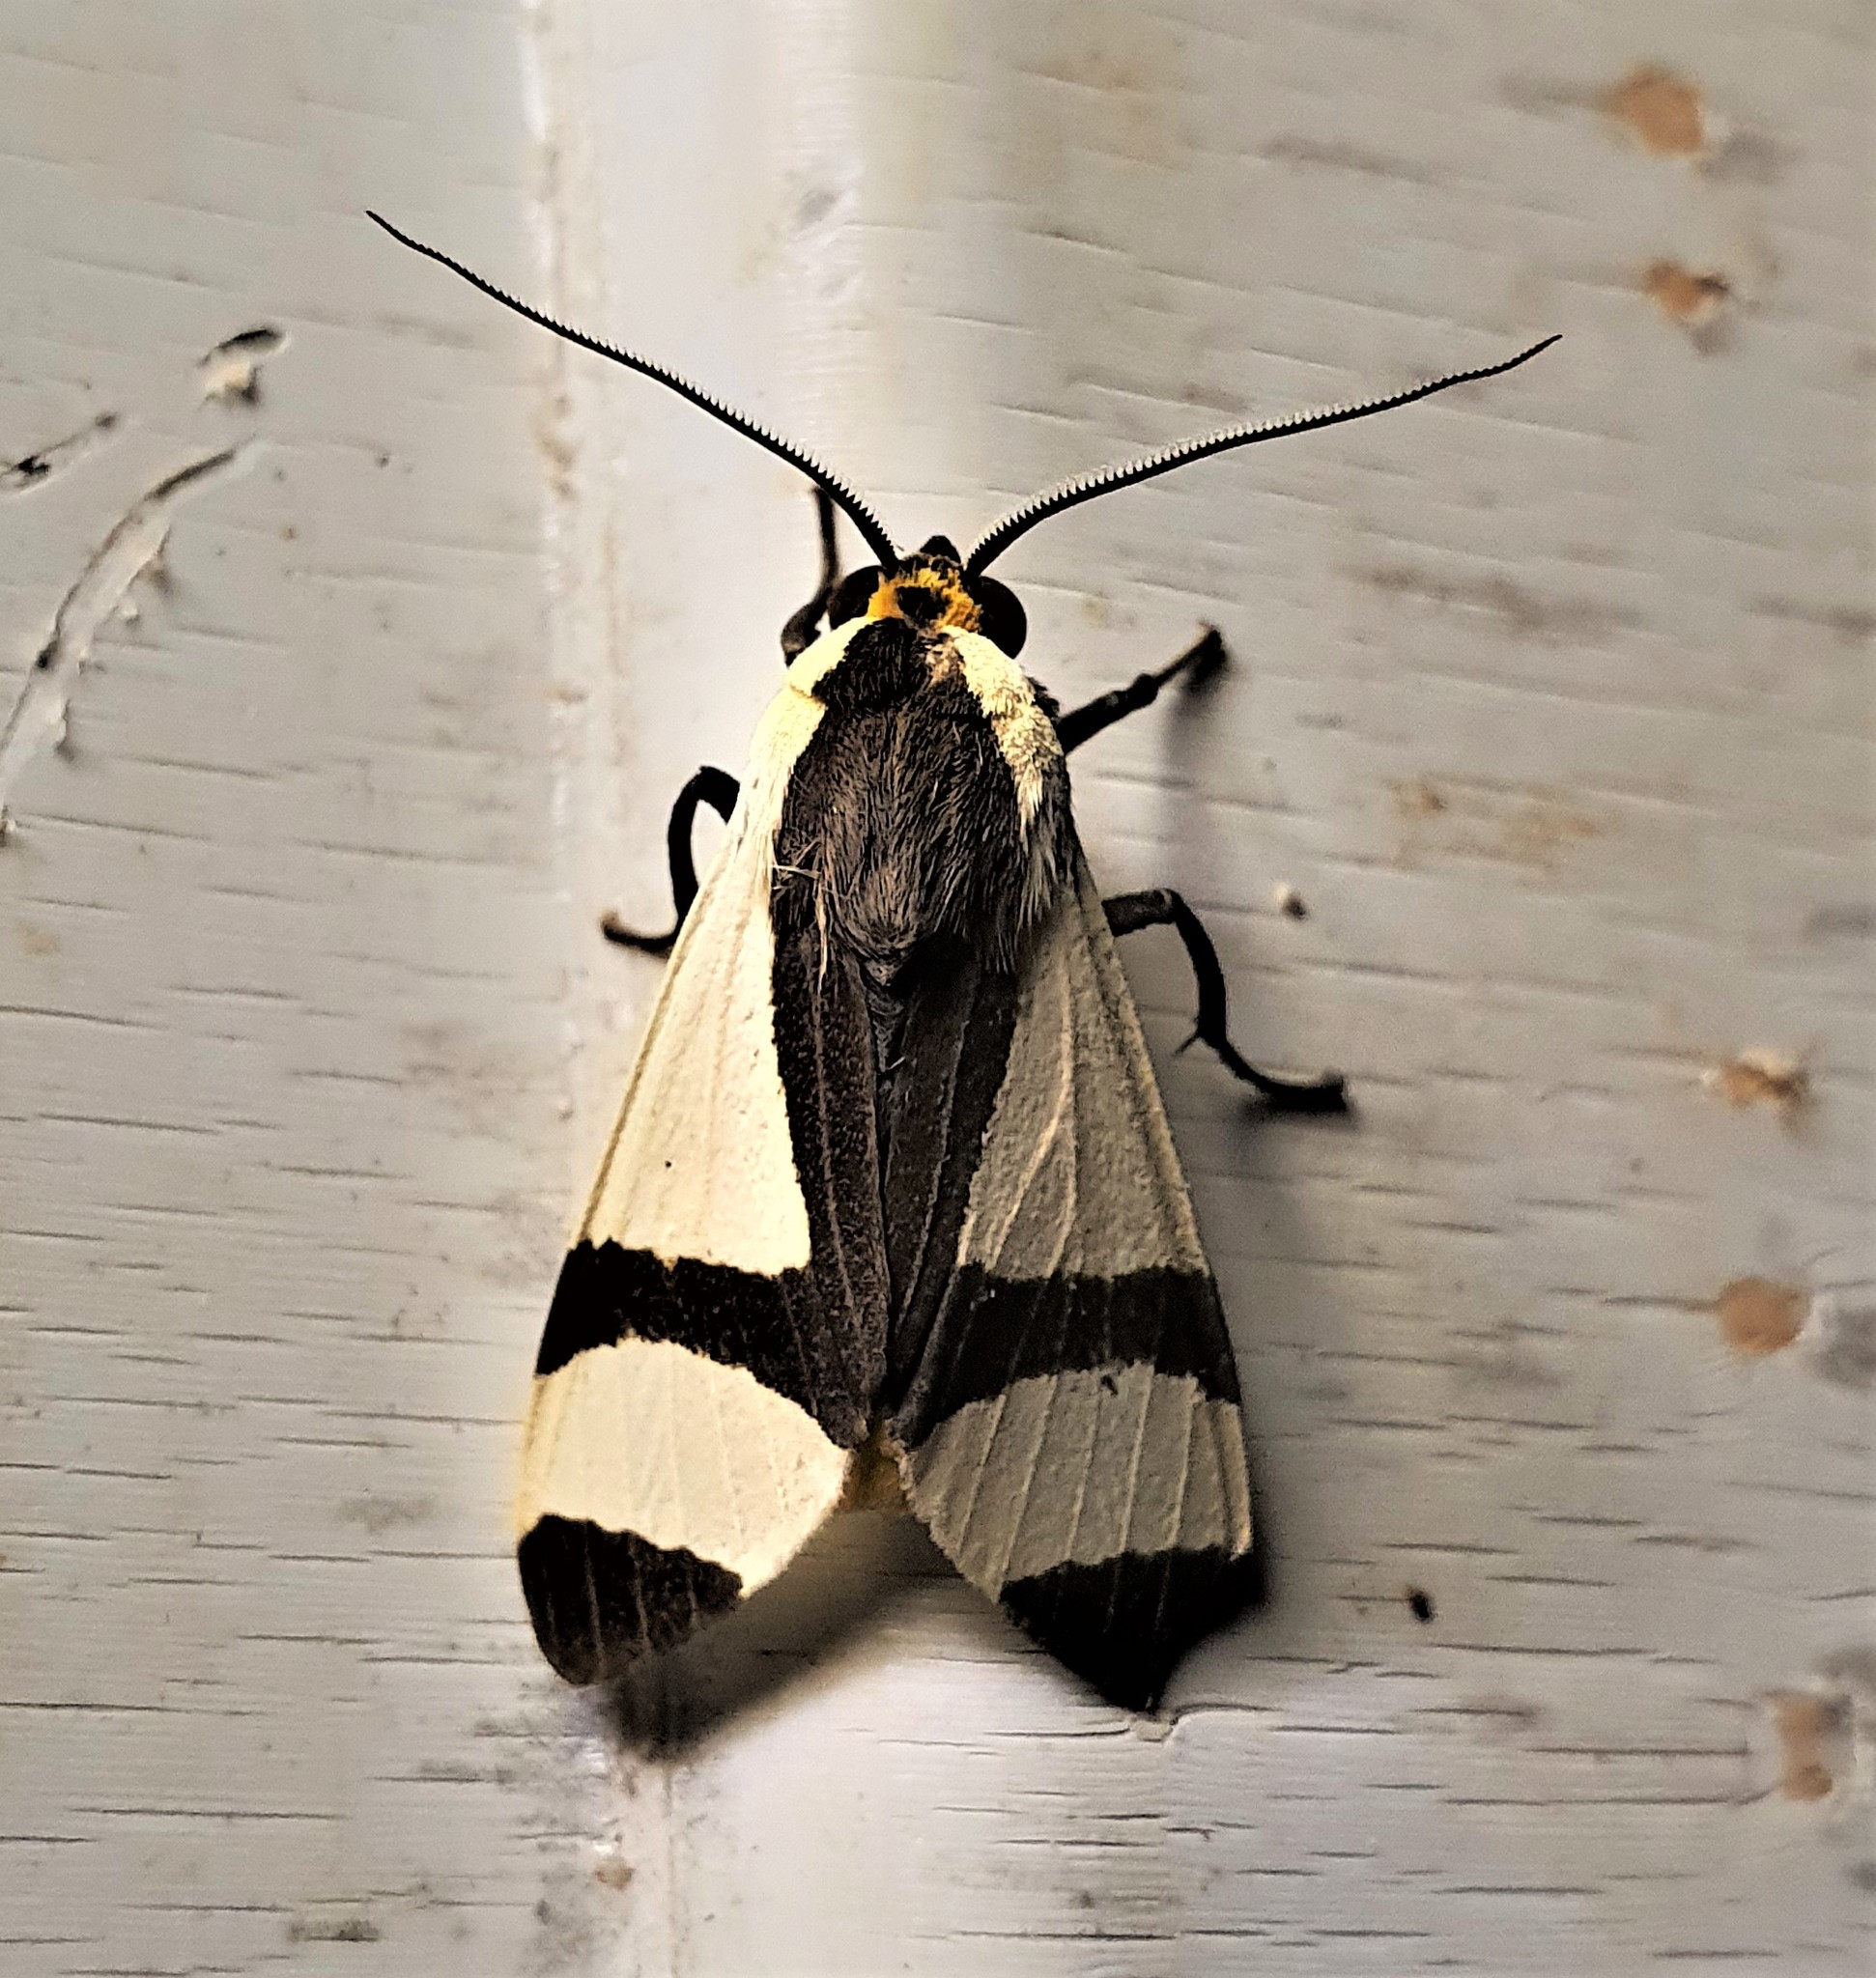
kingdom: Animalia
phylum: Arthropoda
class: Insecta
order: Lepidoptera
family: Erebidae
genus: Pryteria
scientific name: Pryteria alboatra
